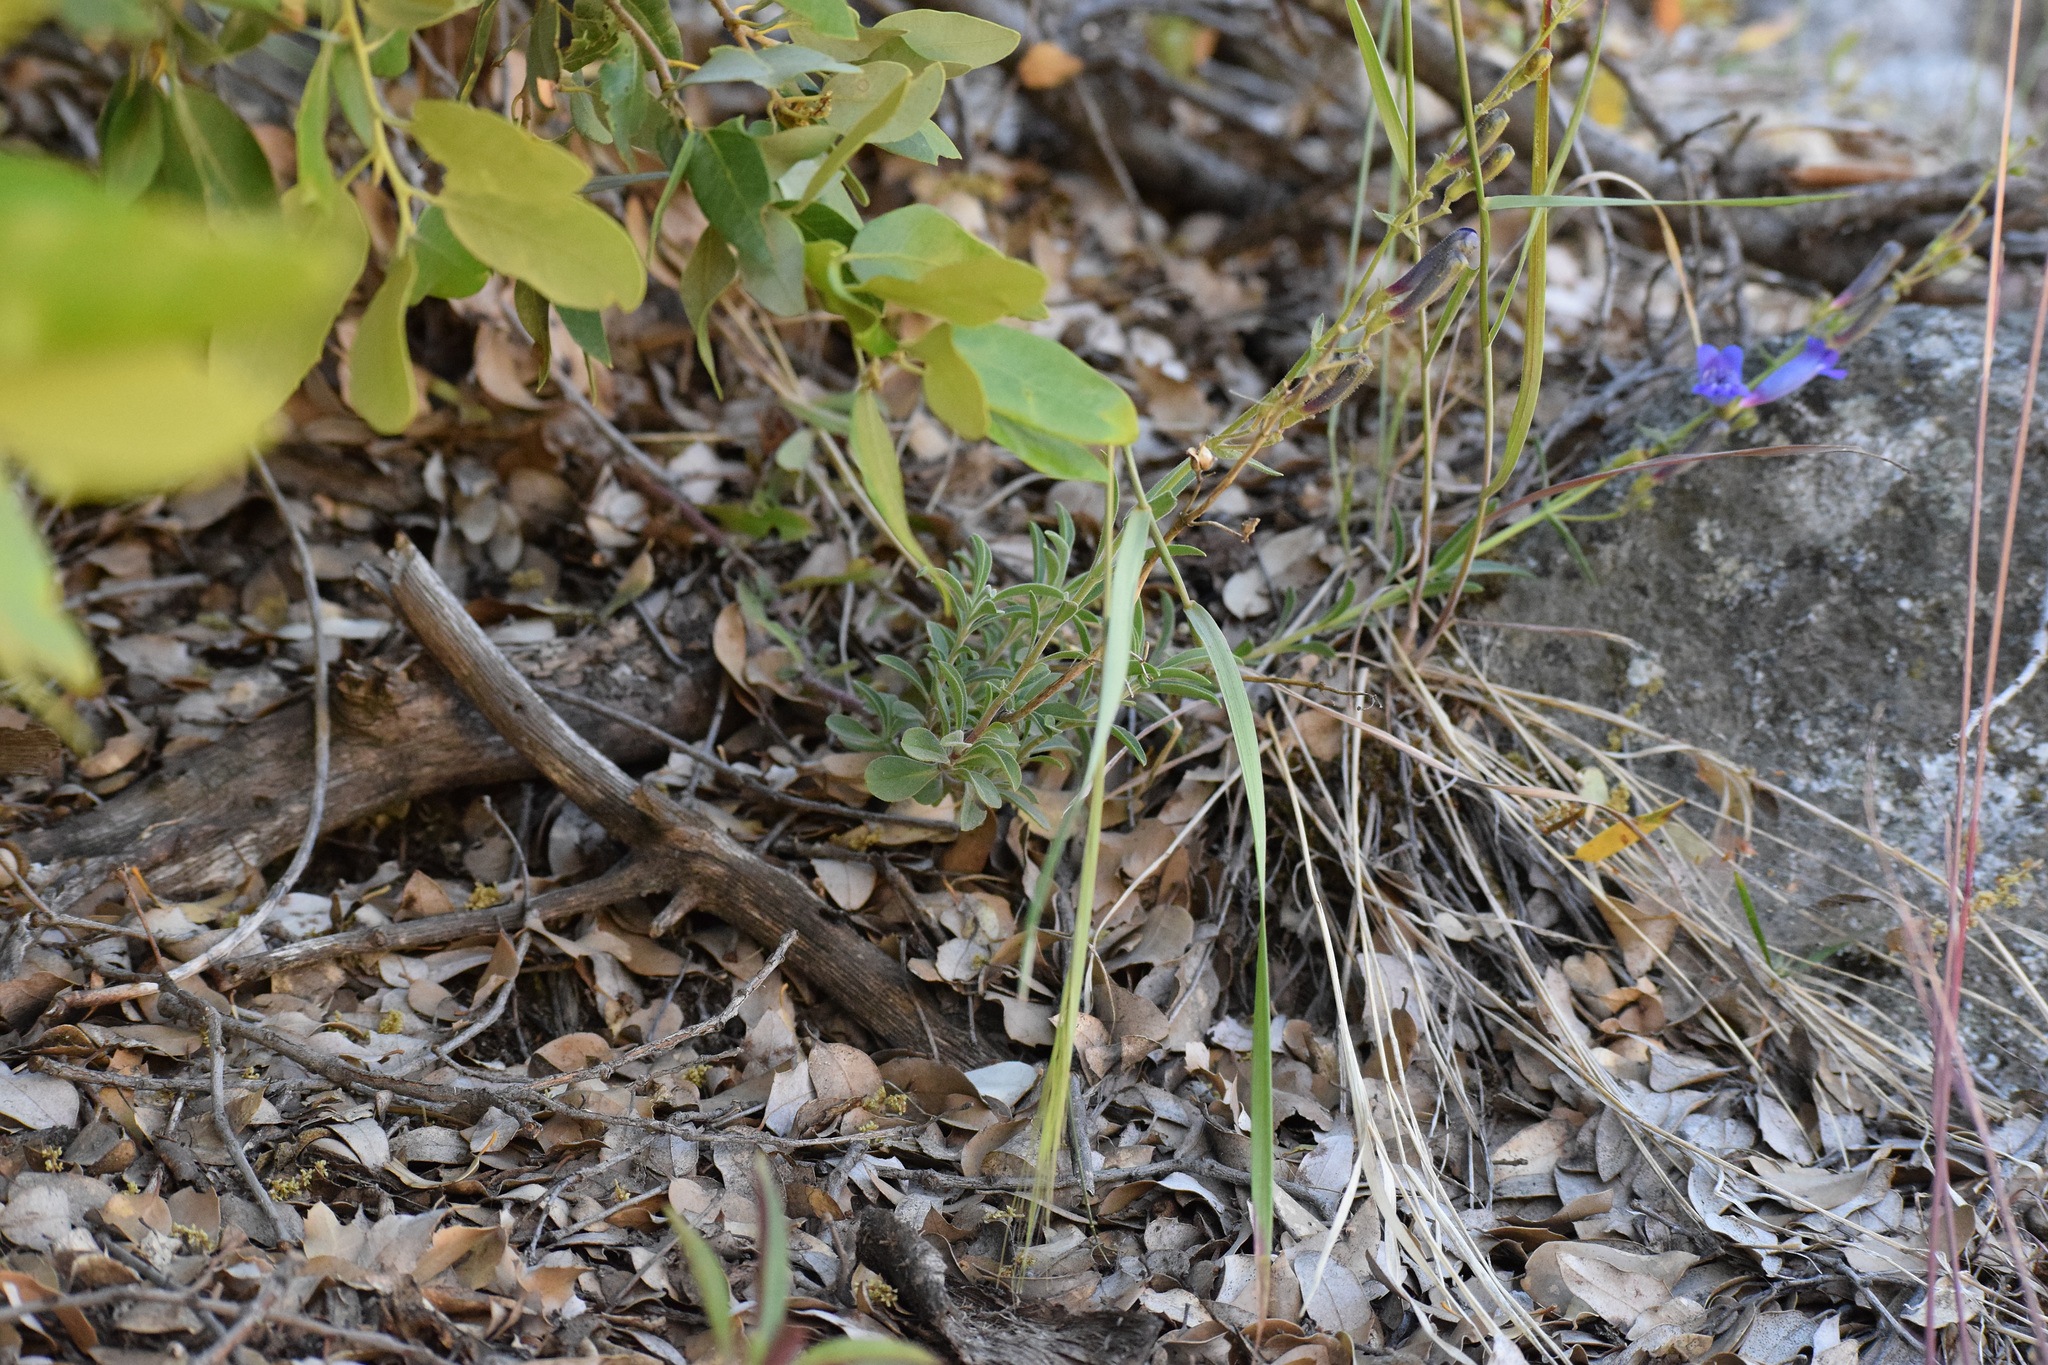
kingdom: Plantae
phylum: Tracheophyta
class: Magnoliopsida
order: Lamiales
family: Plantaginaceae
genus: Penstemon
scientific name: Penstemon laetus
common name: Gay penstemon
